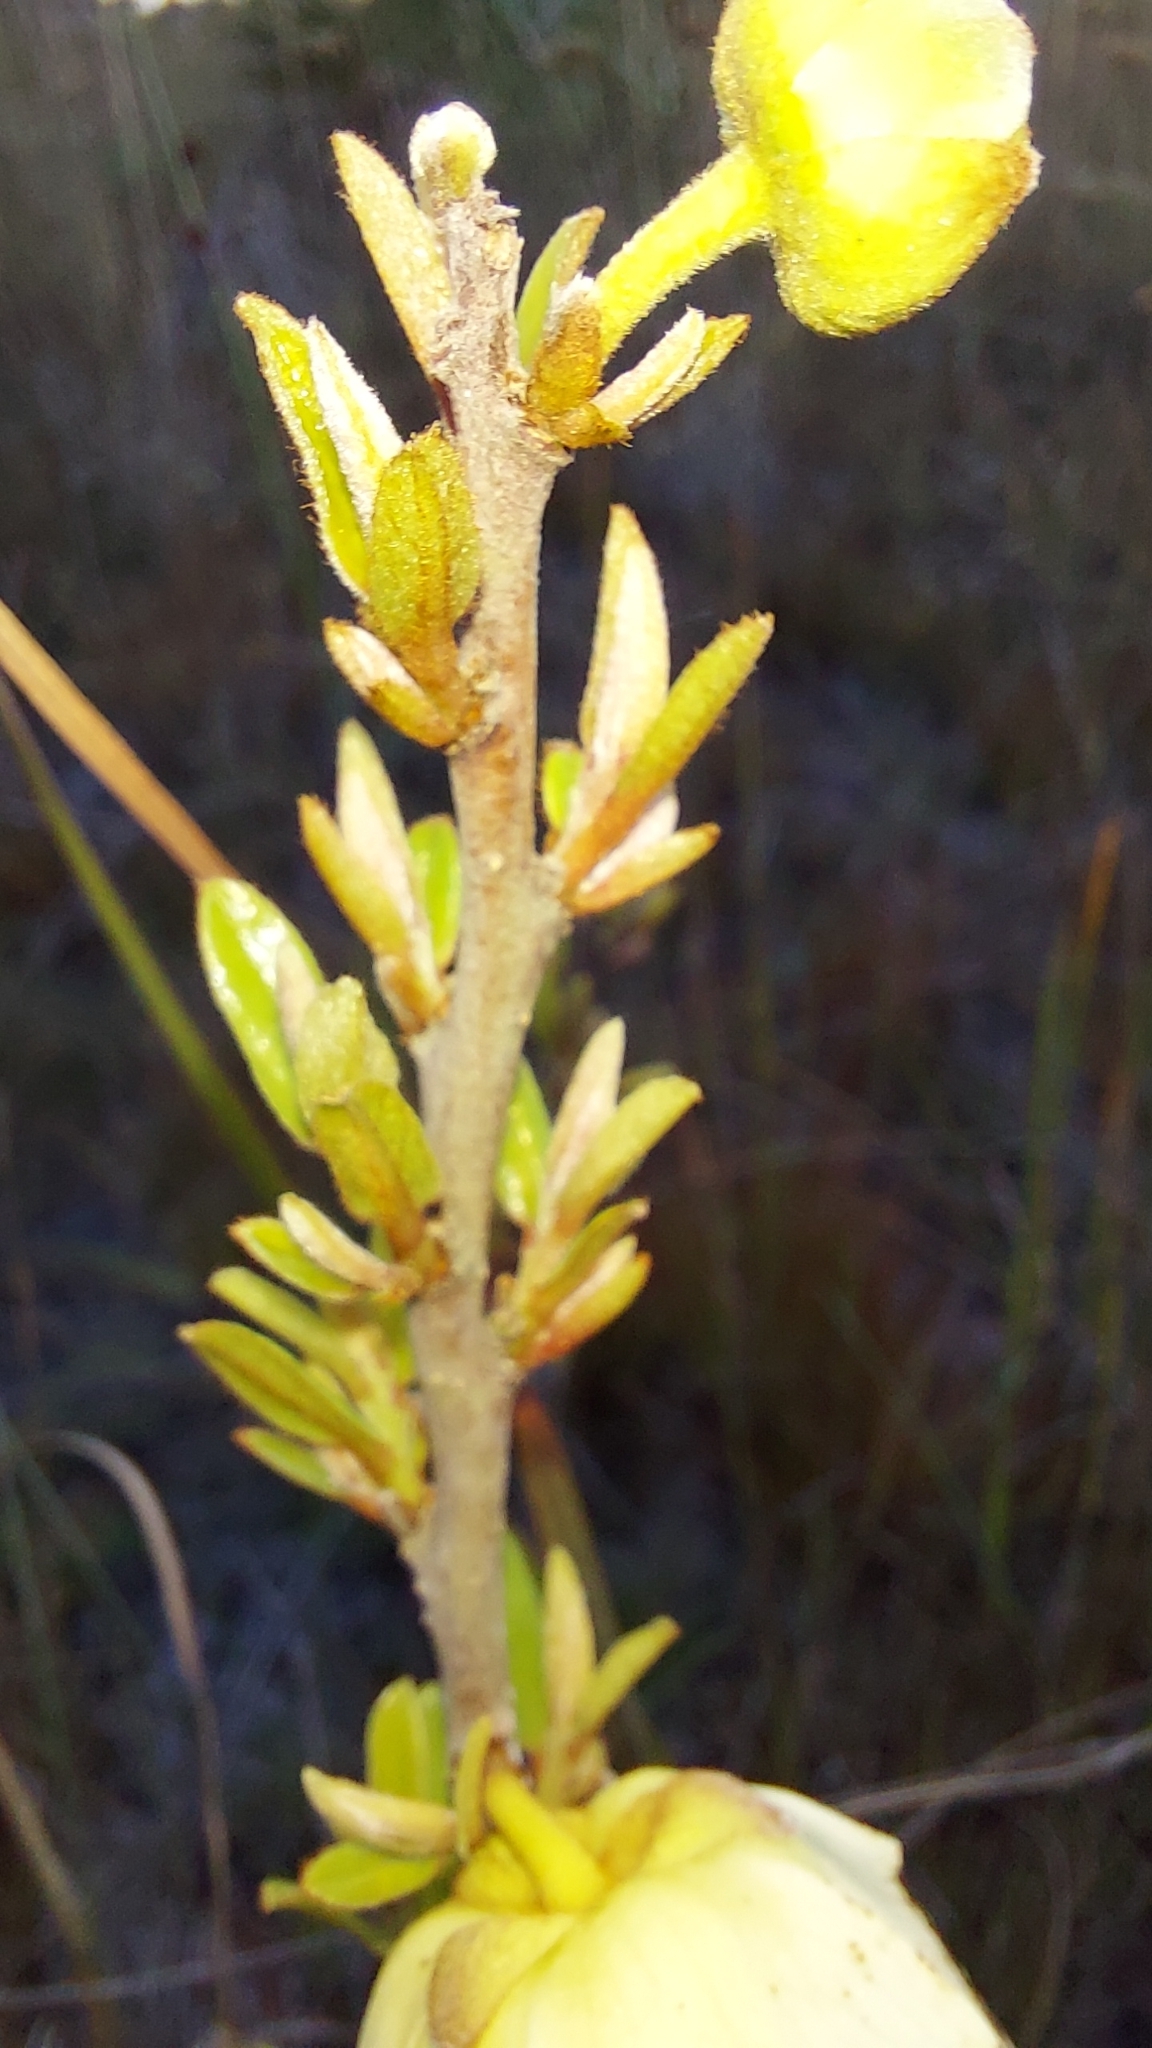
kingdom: Plantae
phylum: Tracheophyta
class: Magnoliopsida
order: Magnoliales
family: Annonaceae
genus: Asimina
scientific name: Asimina reticulata
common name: Flag pawpaw
